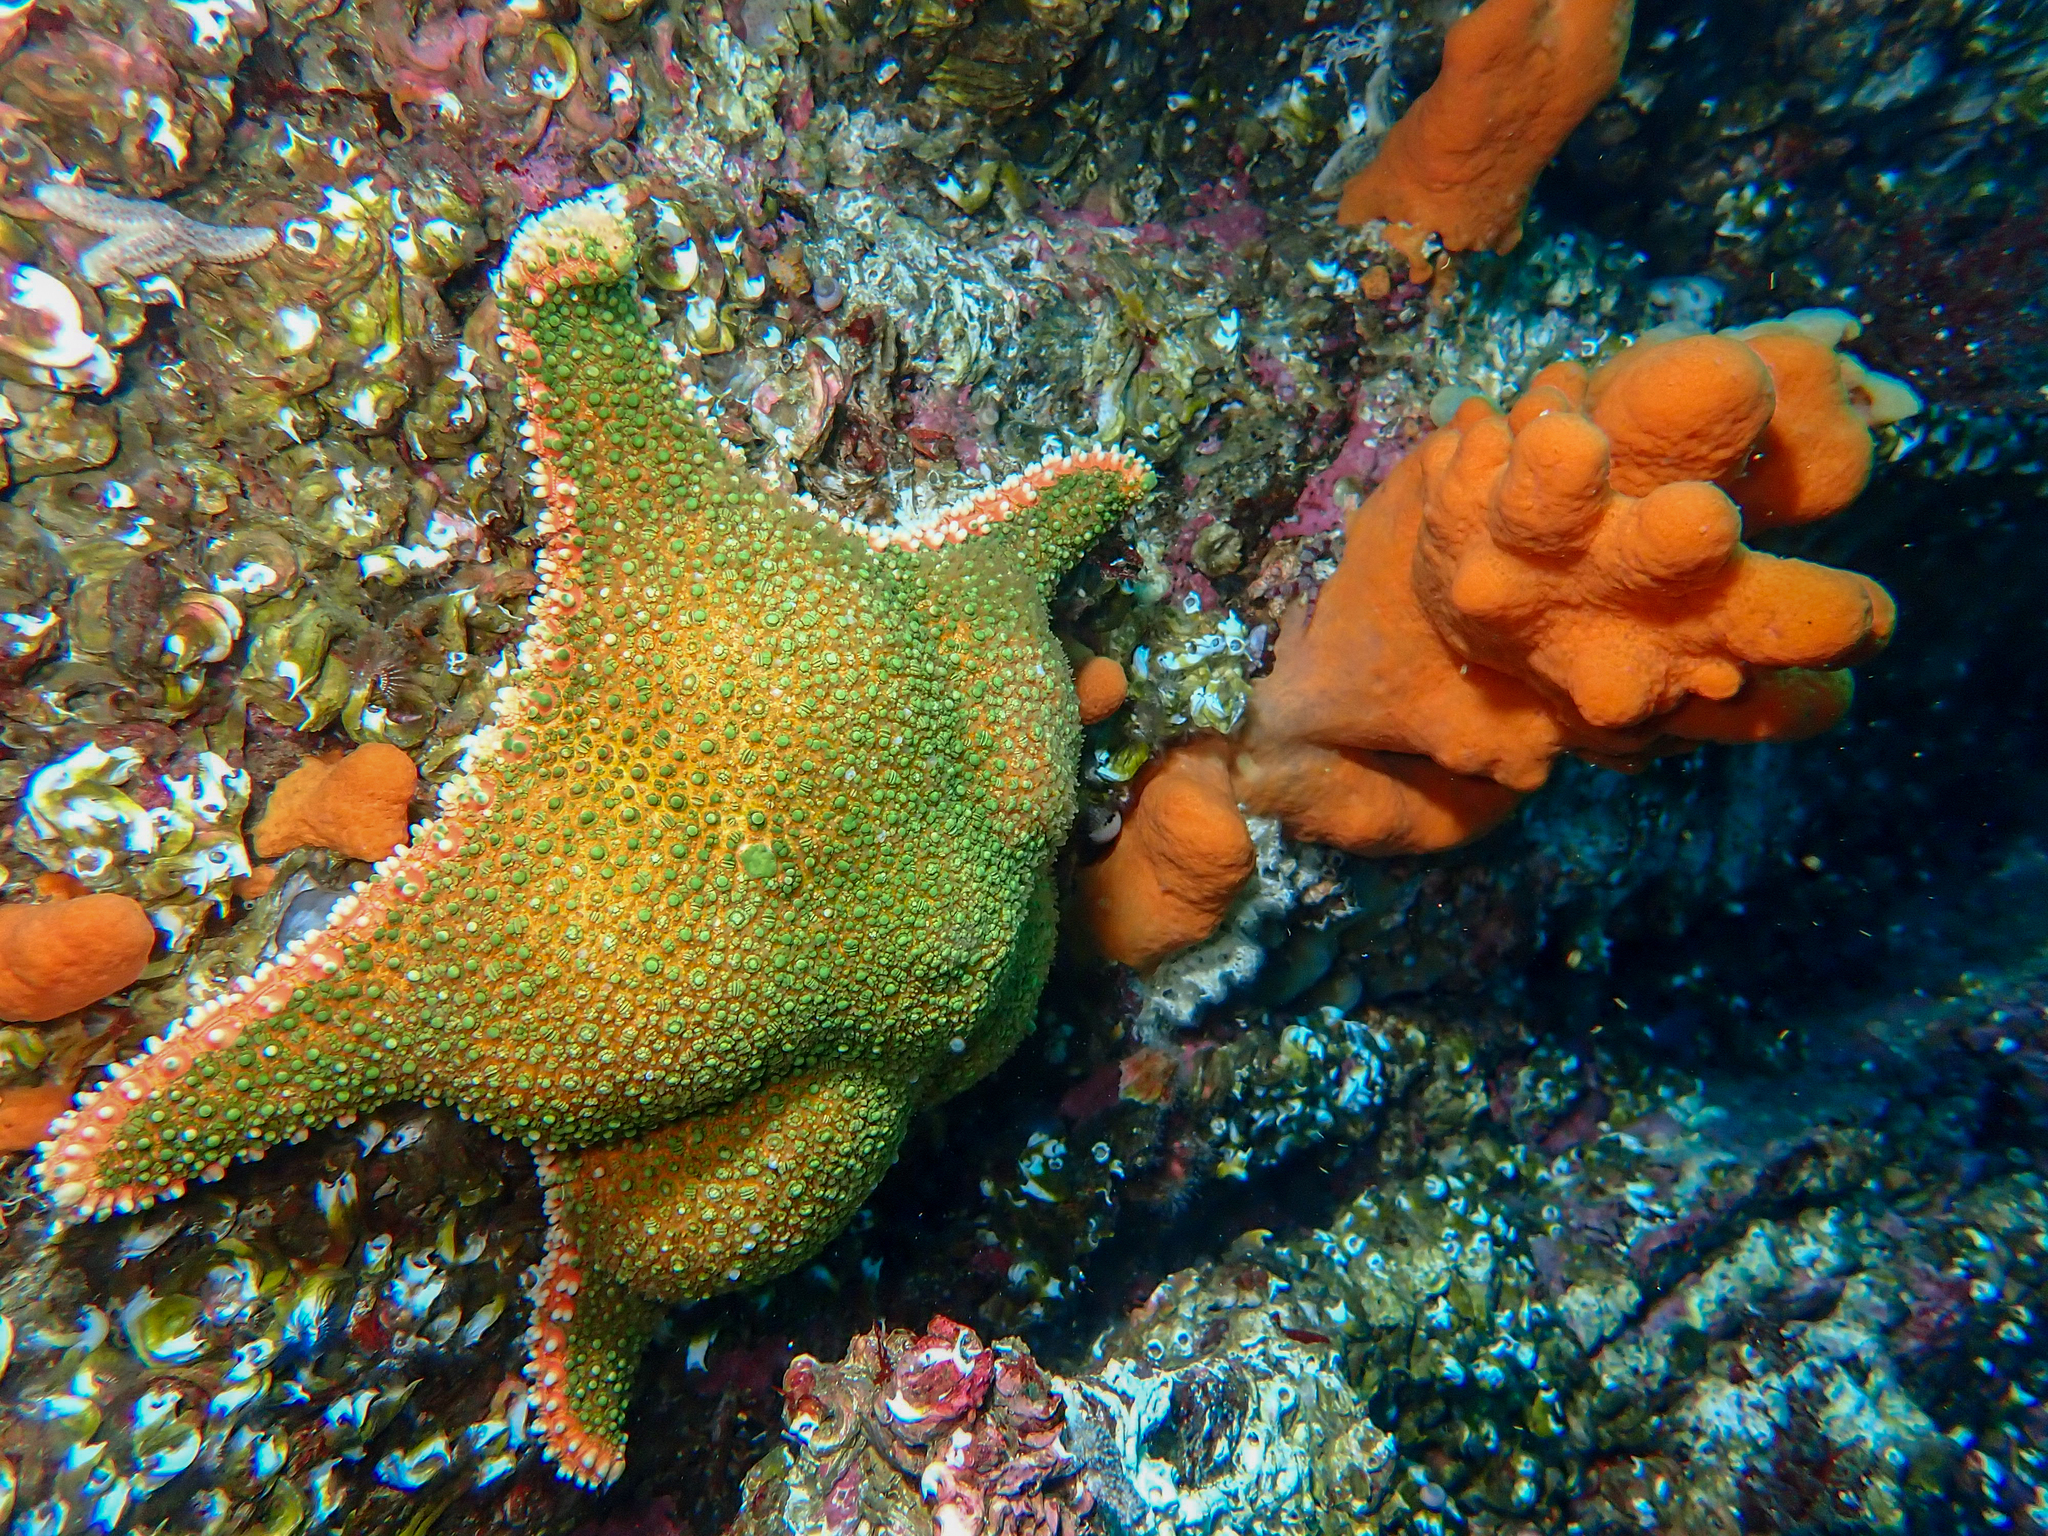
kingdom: Animalia
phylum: Echinodermata
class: Asteroidea
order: Valvatida
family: Goniasteridae
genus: Hippasteria
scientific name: Hippasteria phrygiana
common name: Arctic cushion star
